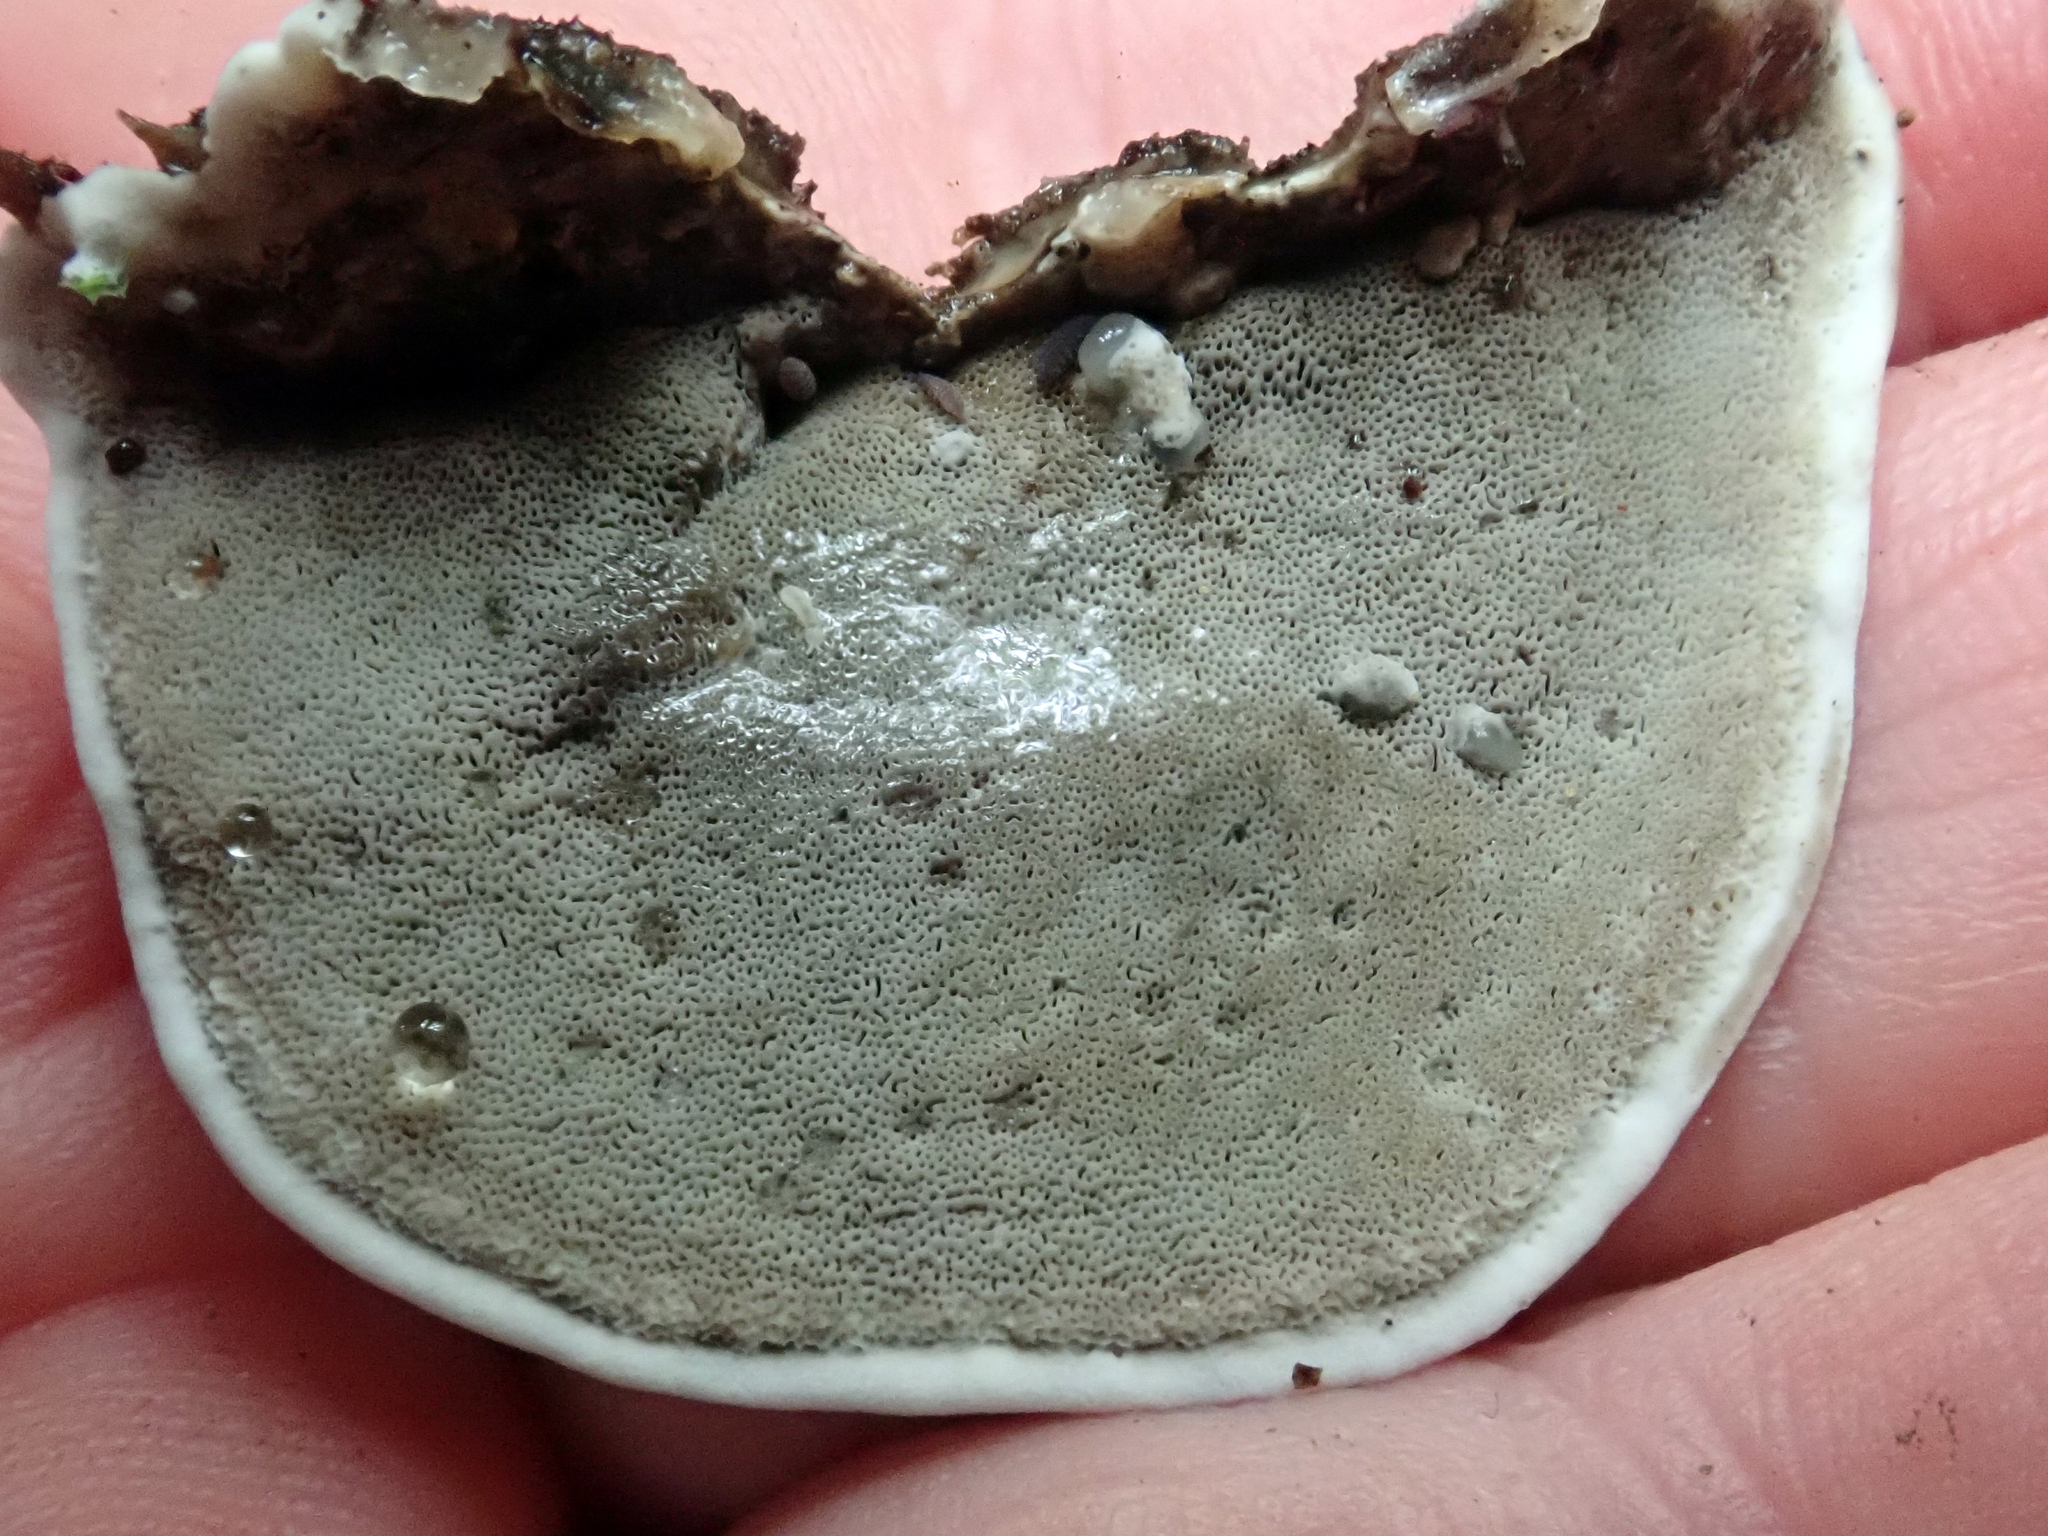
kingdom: Fungi
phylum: Basidiomycota
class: Agaricomycetes
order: Polyporales
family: Phanerochaetaceae
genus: Bjerkandera
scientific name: Bjerkandera adusta
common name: Smoky bracket
